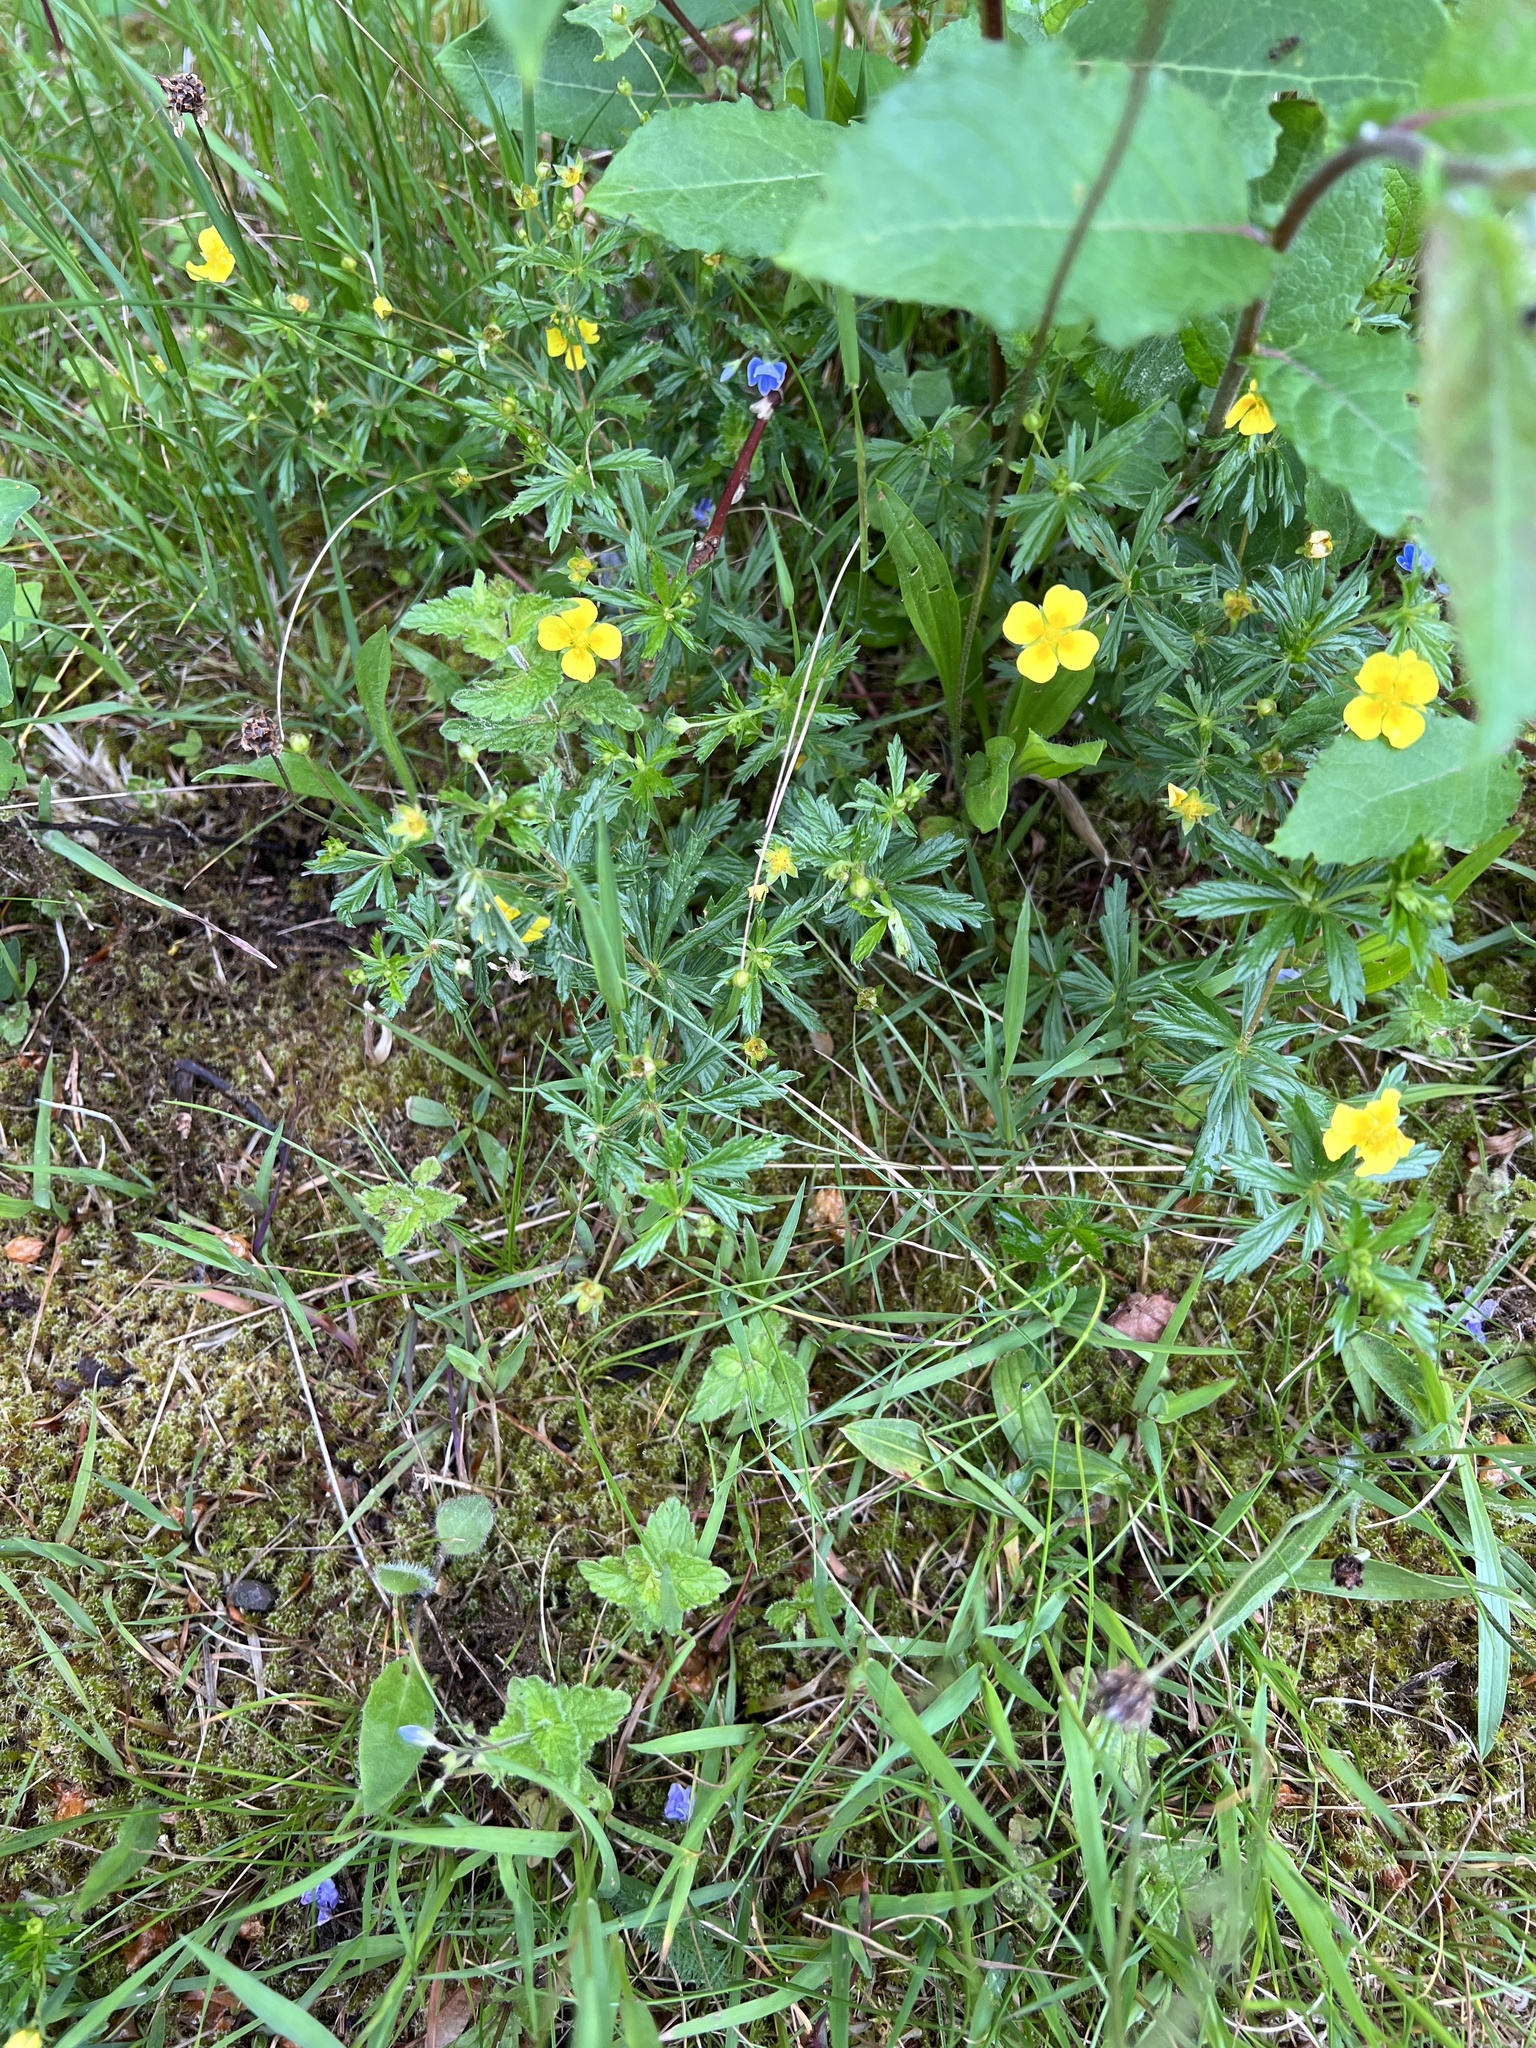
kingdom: Plantae
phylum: Tracheophyta
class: Magnoliopsida
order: Rosales
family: Rosaceae
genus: Potentilla
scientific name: Potentilla erecta
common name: Tormentil
